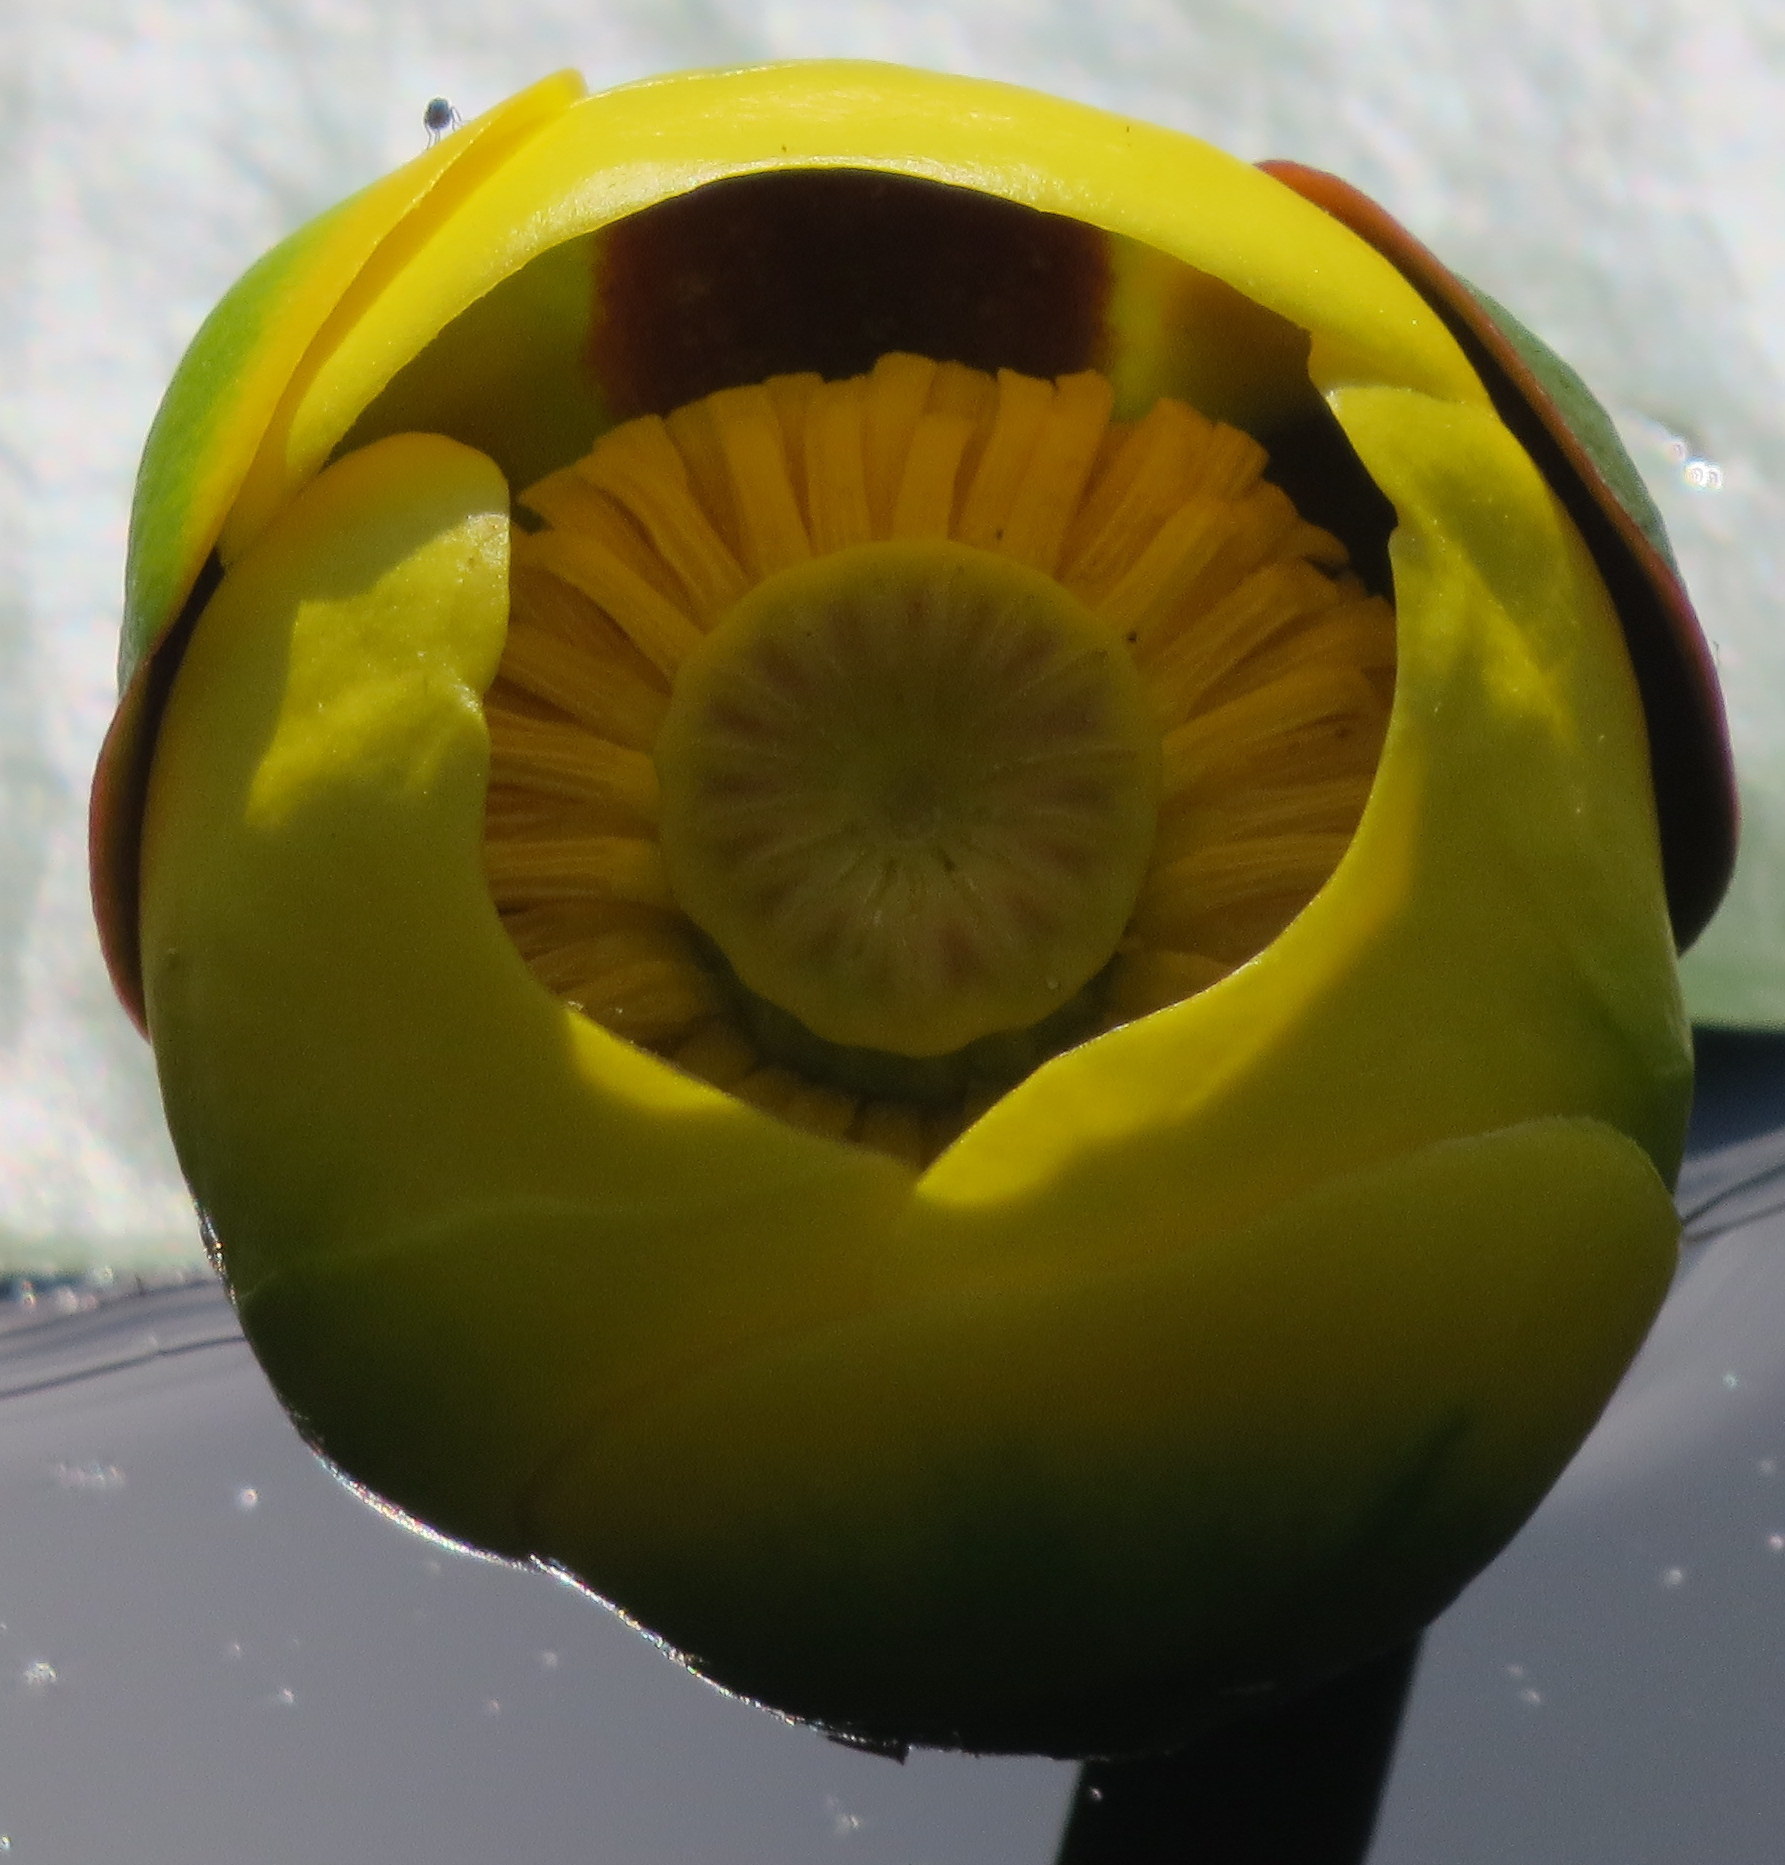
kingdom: Plantae
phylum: Tracheophyta
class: Magnoliopsida
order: Nymphaeales
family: Nymphaeaceae
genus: Nuphar
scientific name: Nuphar variegata
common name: Beaver-root
